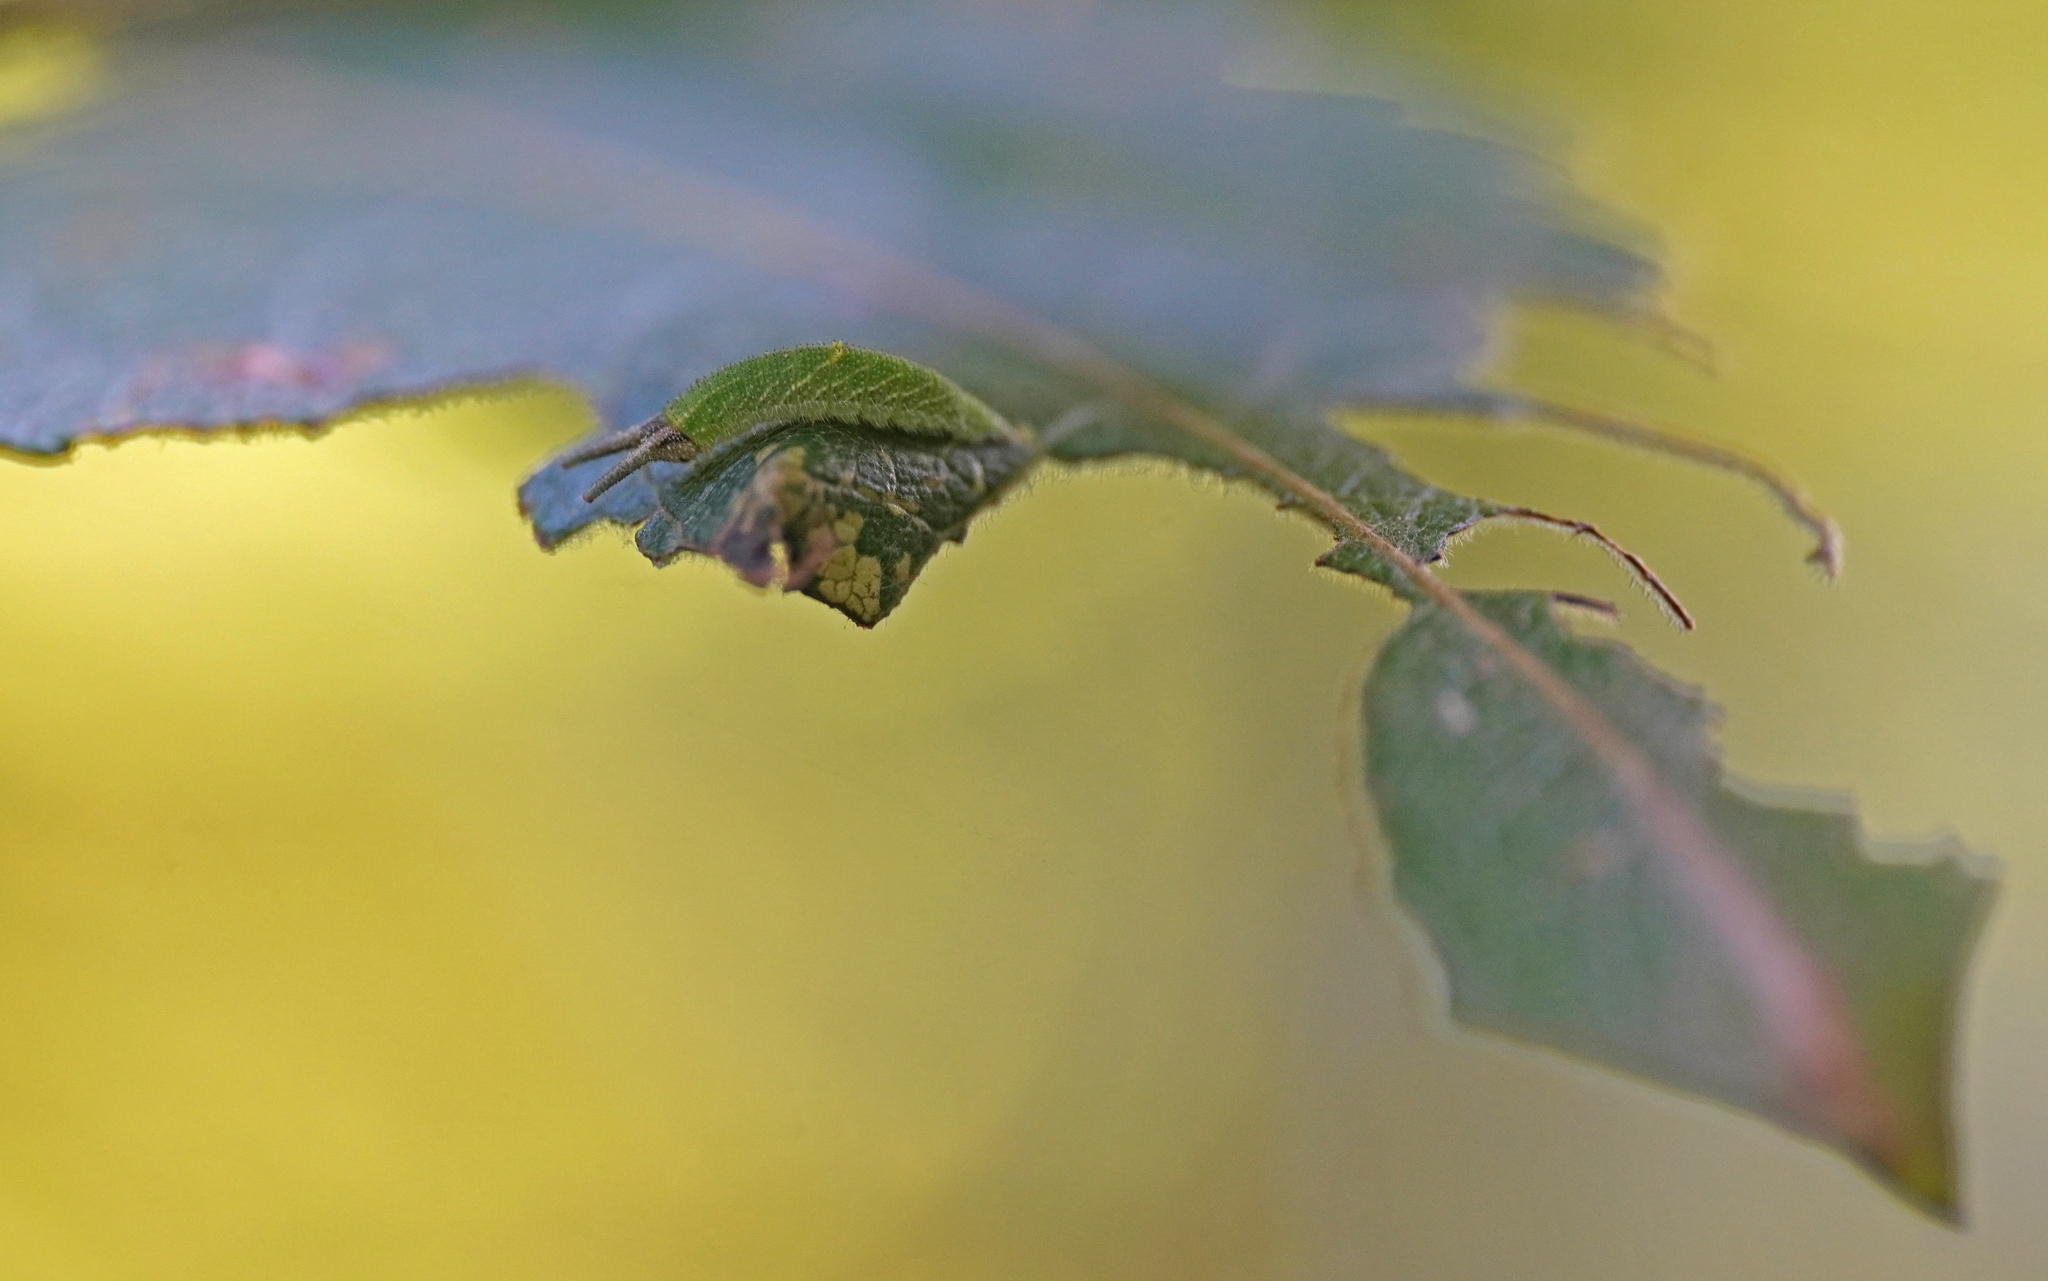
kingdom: Animalia
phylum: Arthropoda
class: Insecta
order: Lepidoptera
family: Nymphalidae
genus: Apatura
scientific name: Apatura iris
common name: Purple emperor
